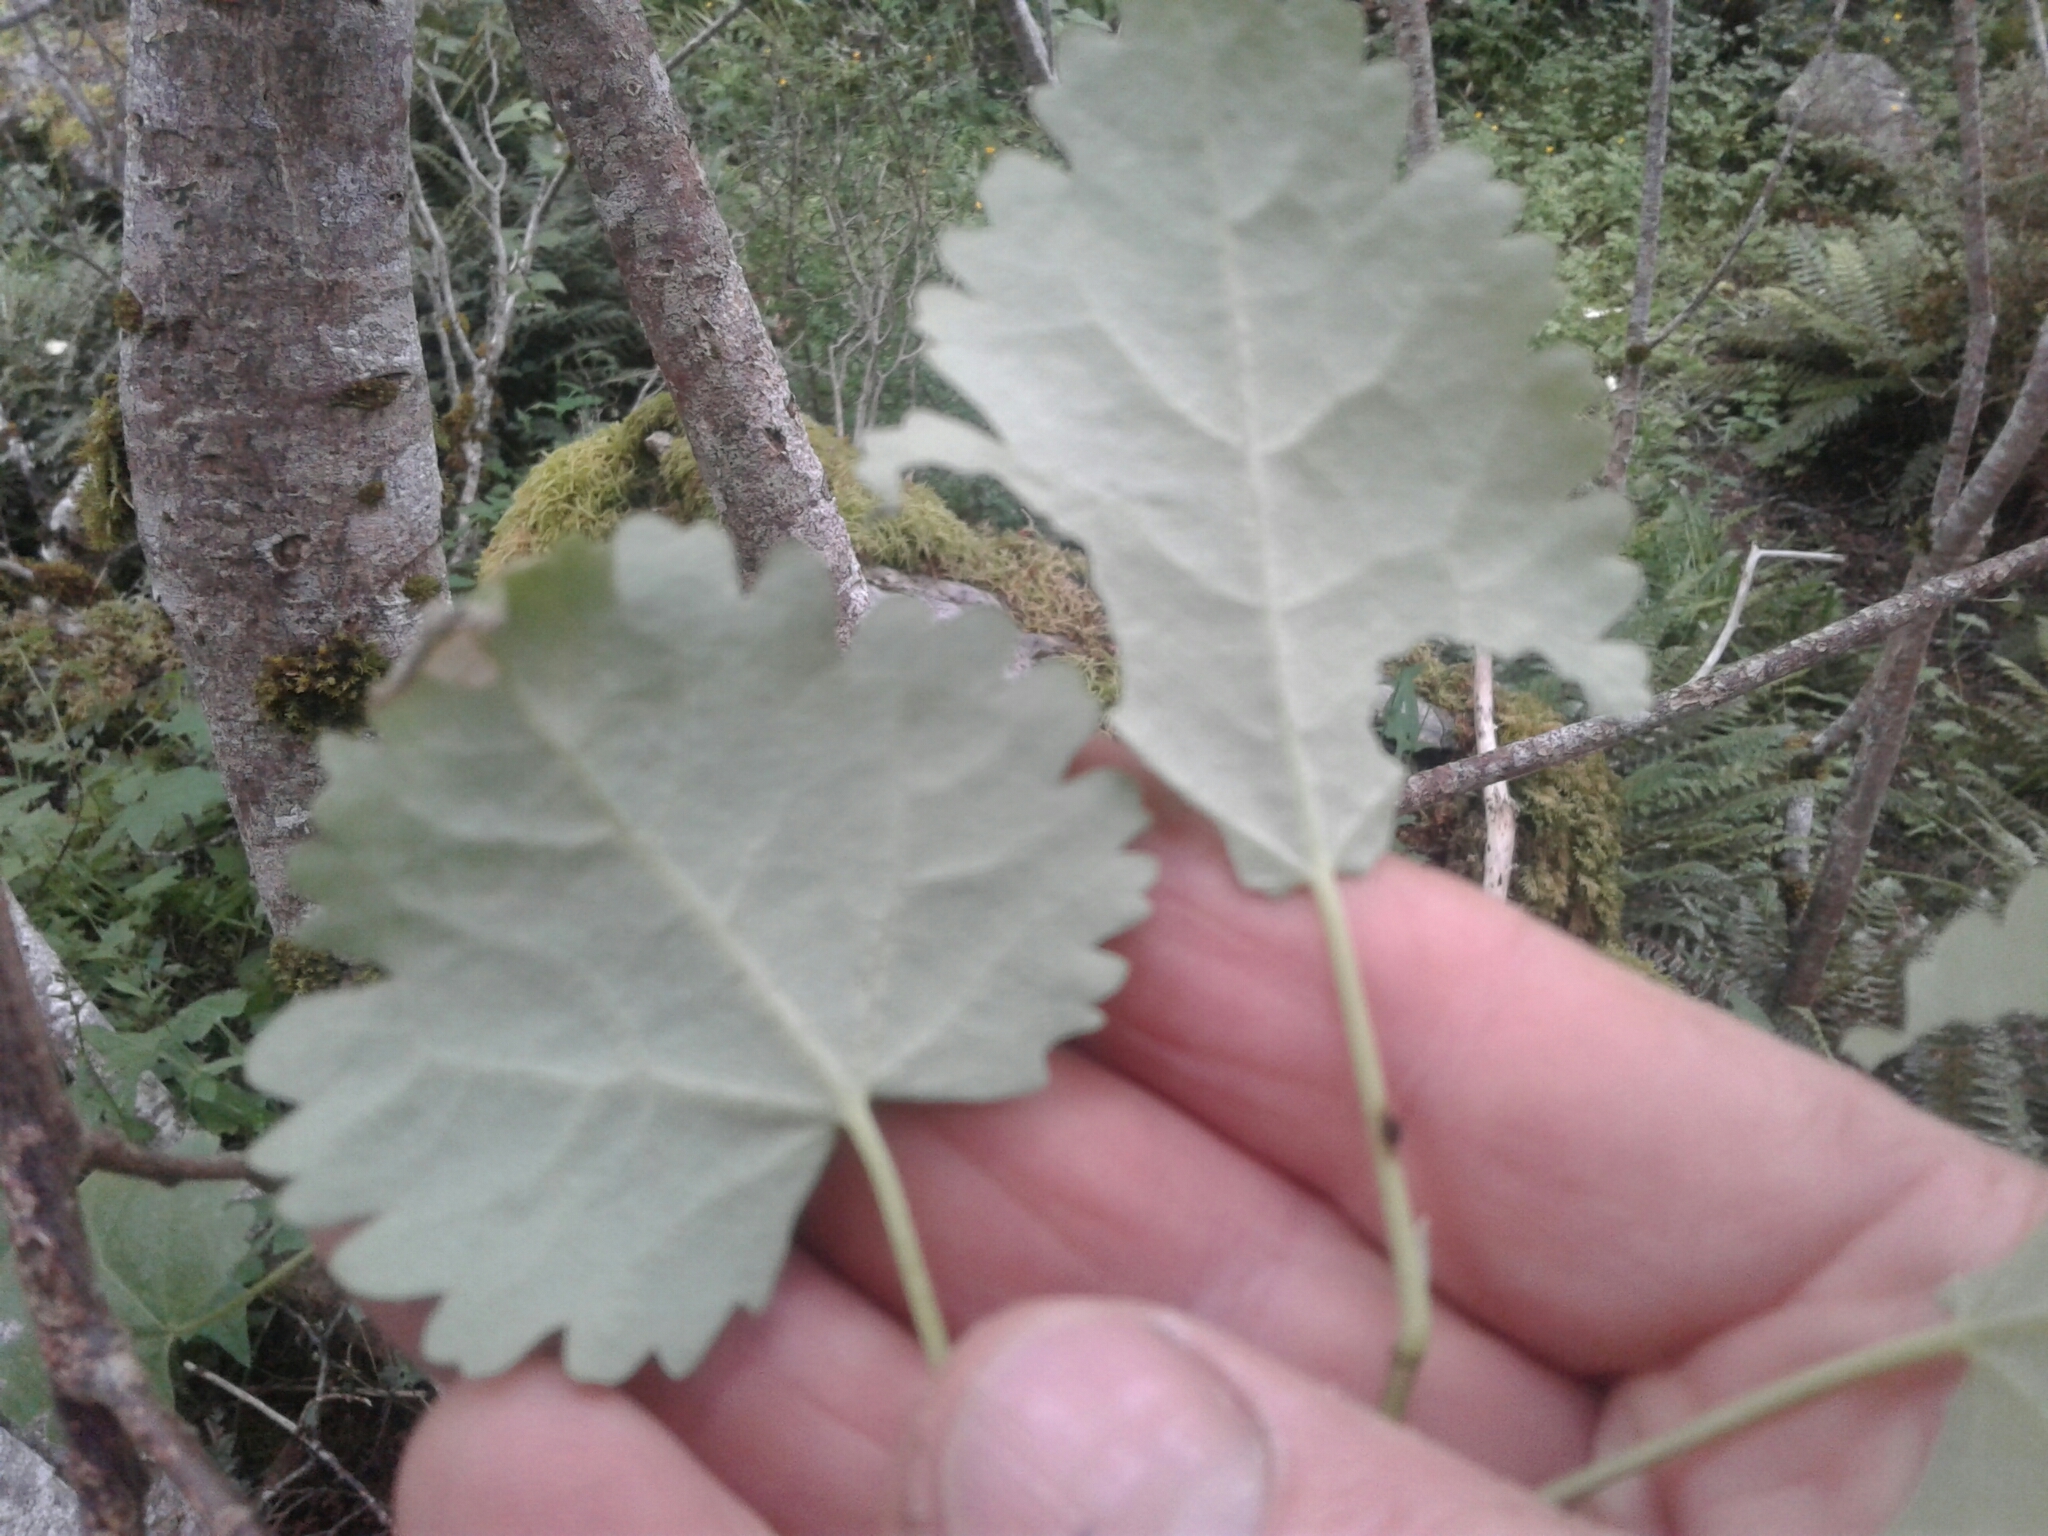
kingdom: Plantae
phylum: Tracheophyta
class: Magnoliopsida
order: Malvales
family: Malvaceae
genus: Hoheria
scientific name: Hoheria glabrata
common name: Mountain-ribbon
